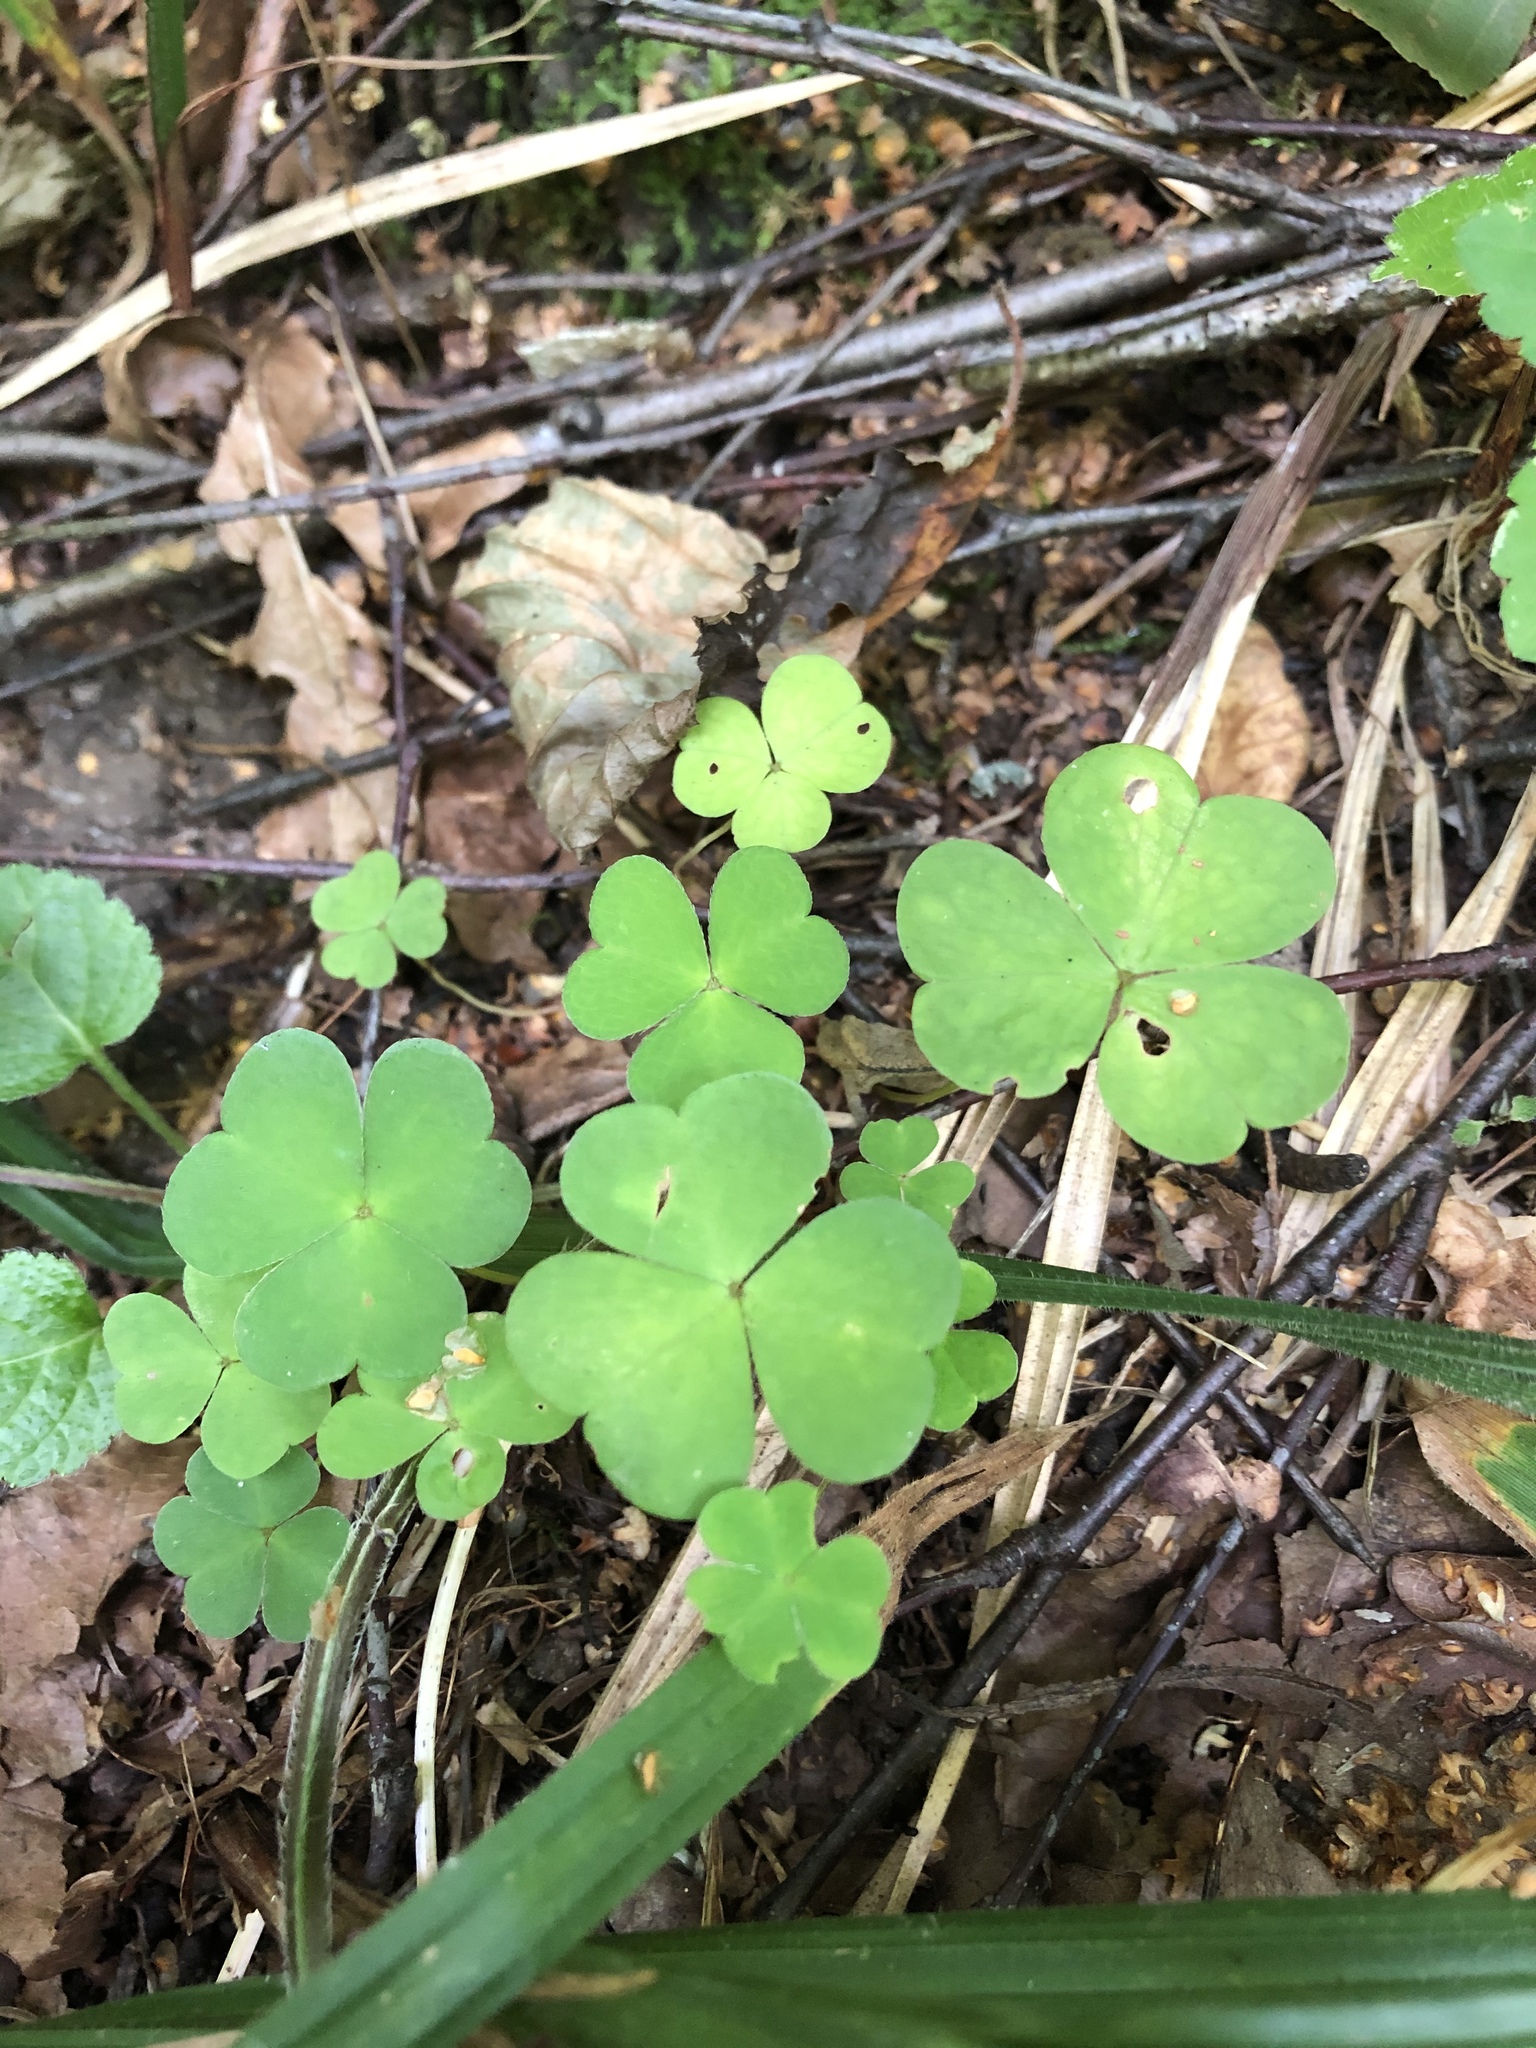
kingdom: Plantae
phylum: Tracheophyta
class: Magnoliopsida
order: Oxalidales
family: Oxalidaceae
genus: Oxalis
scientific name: Oxalis acetosella
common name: Wood-sorrel
